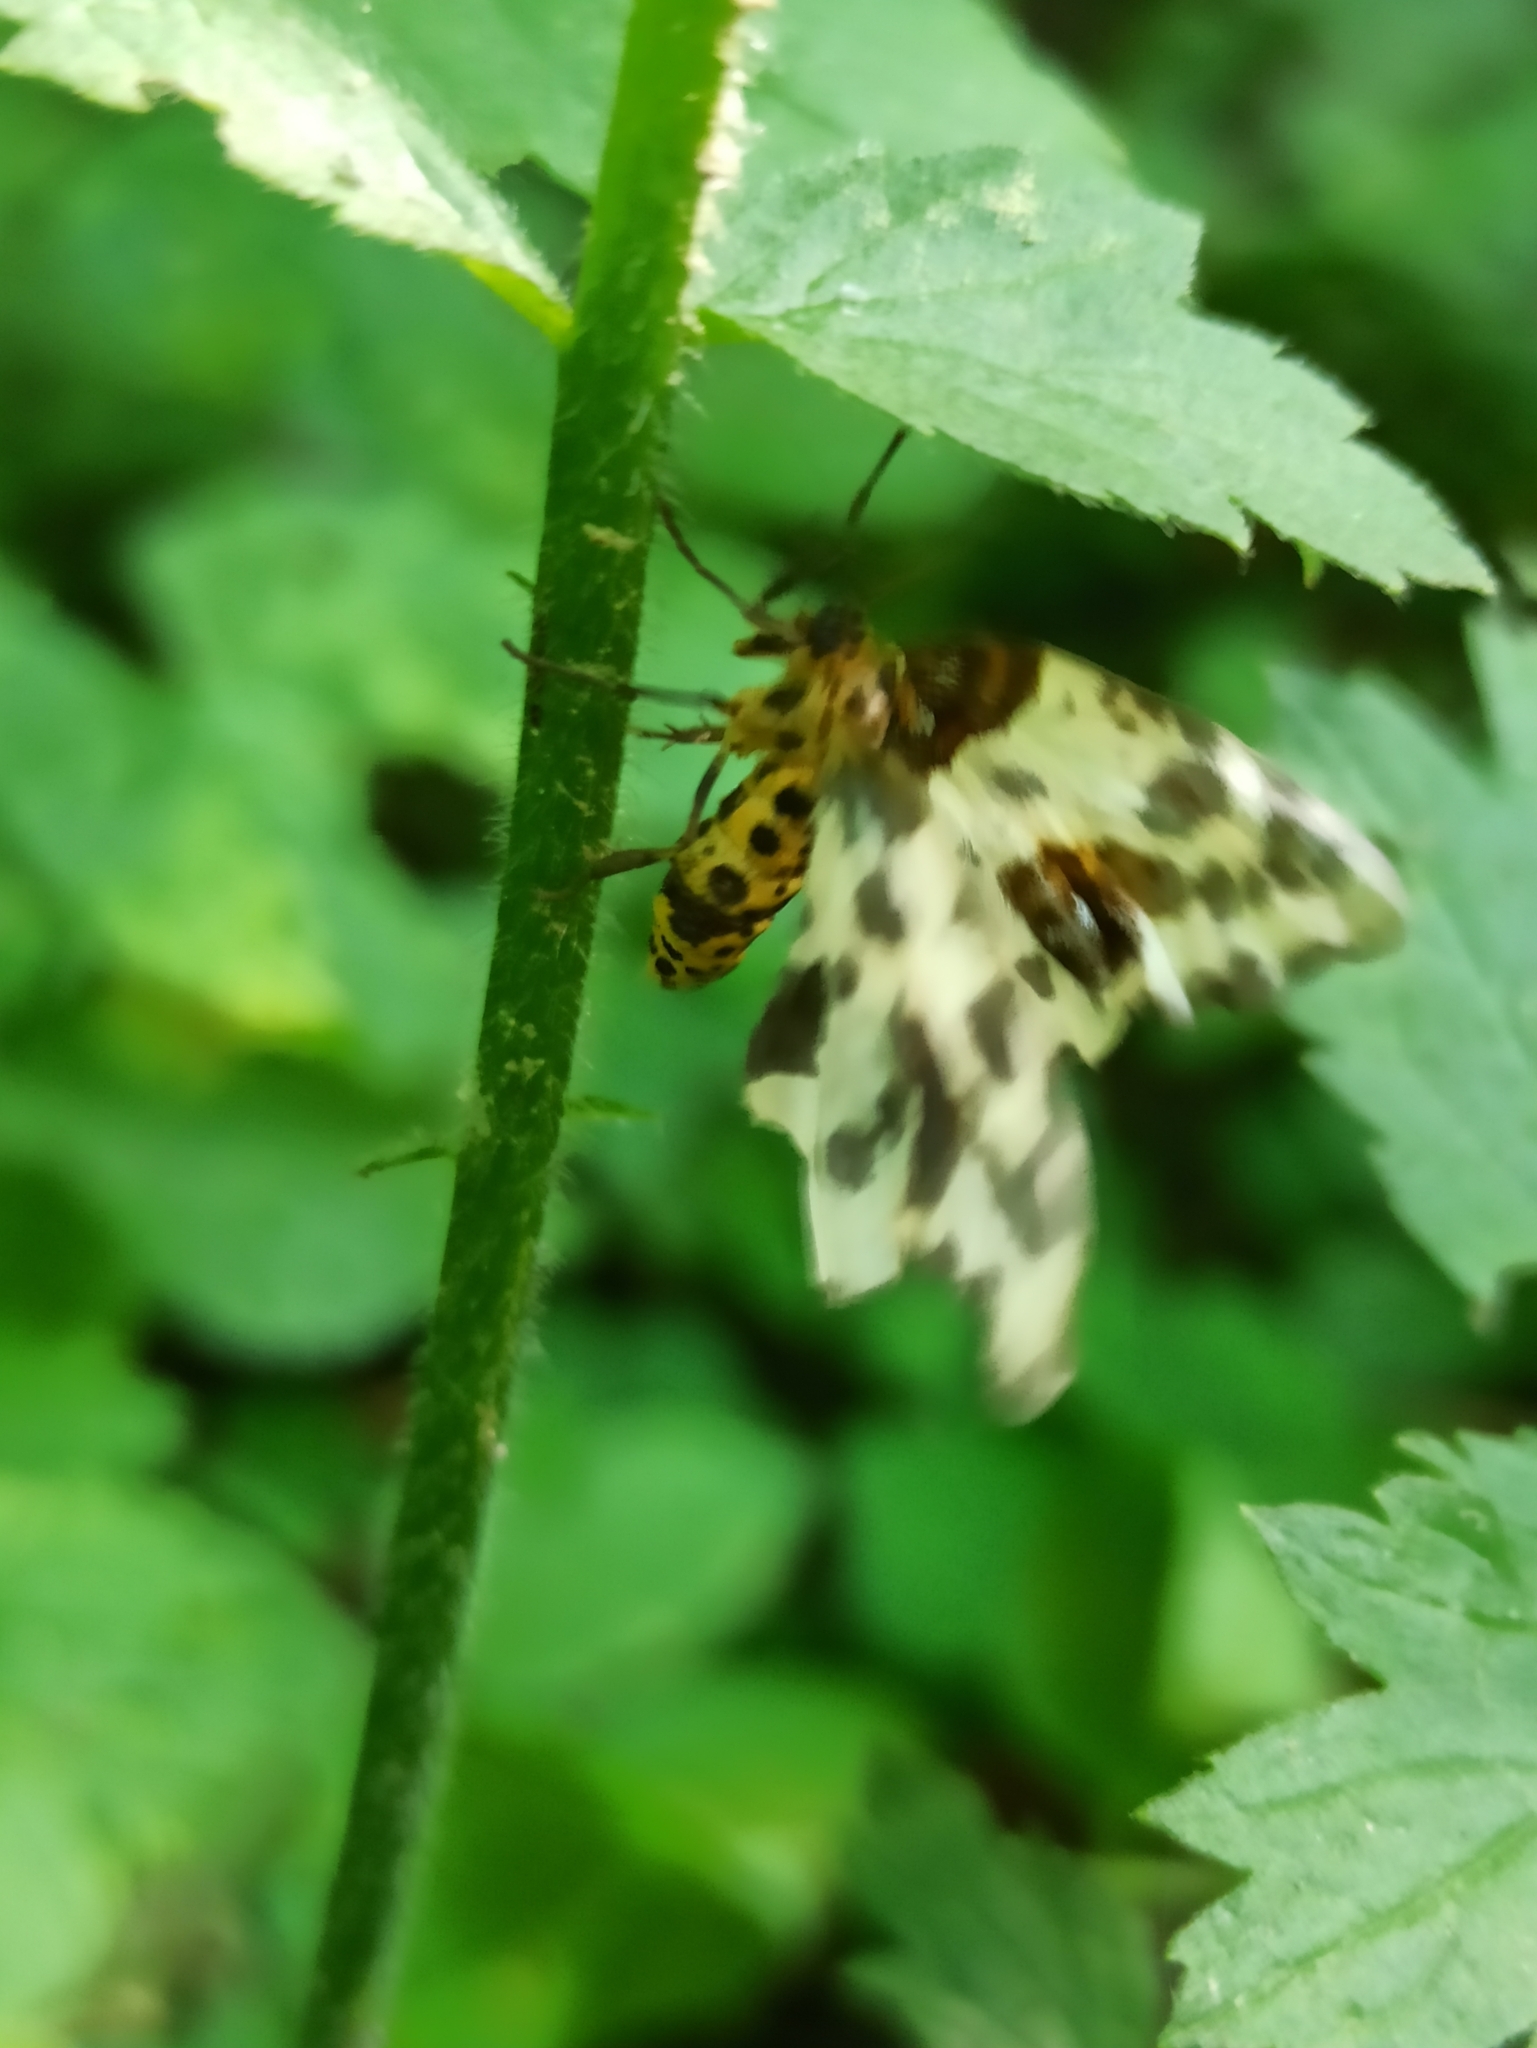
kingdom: Animalia
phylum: Arthropoda
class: Insecta
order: Lepidoptera
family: Geometridae
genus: Abraxas
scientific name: Abraxas sylvata
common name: Clouded magpie
